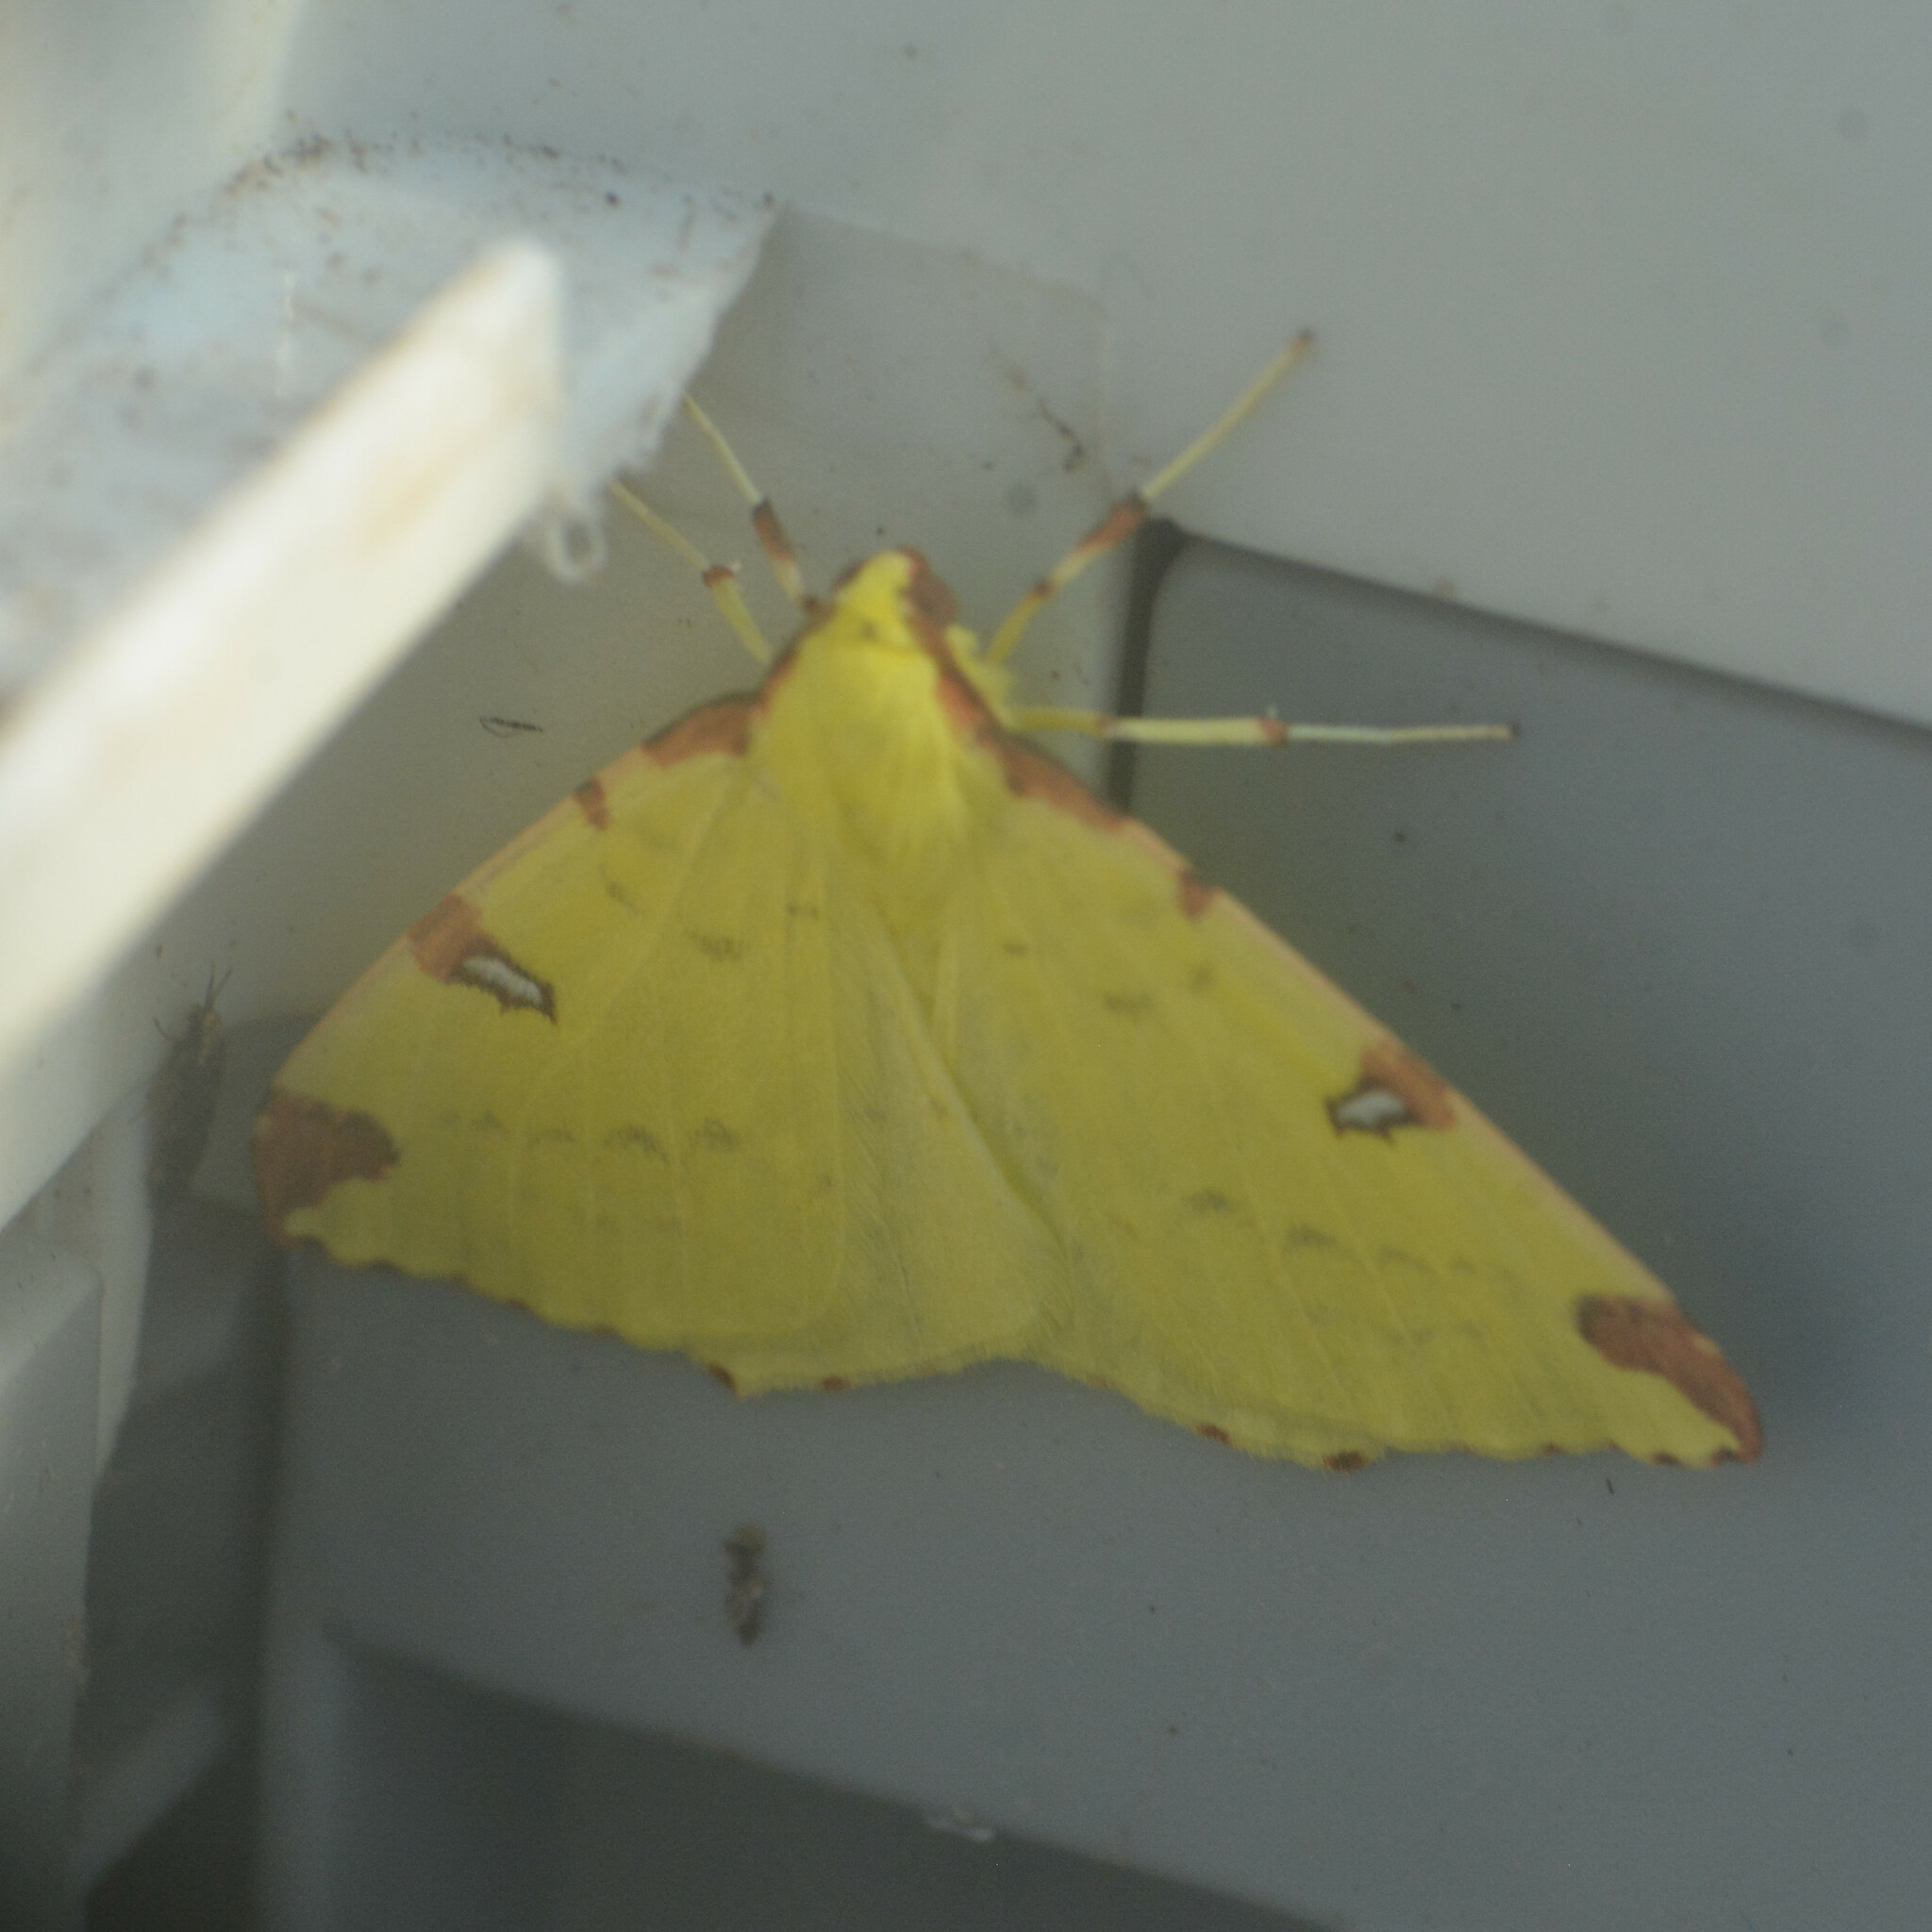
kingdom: Animalia
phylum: Arthropoda
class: Insecta
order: Lepidoptera
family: Geometridae
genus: Opisthograptis
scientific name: Opisthograptis luteolata
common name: Brimstone moth
